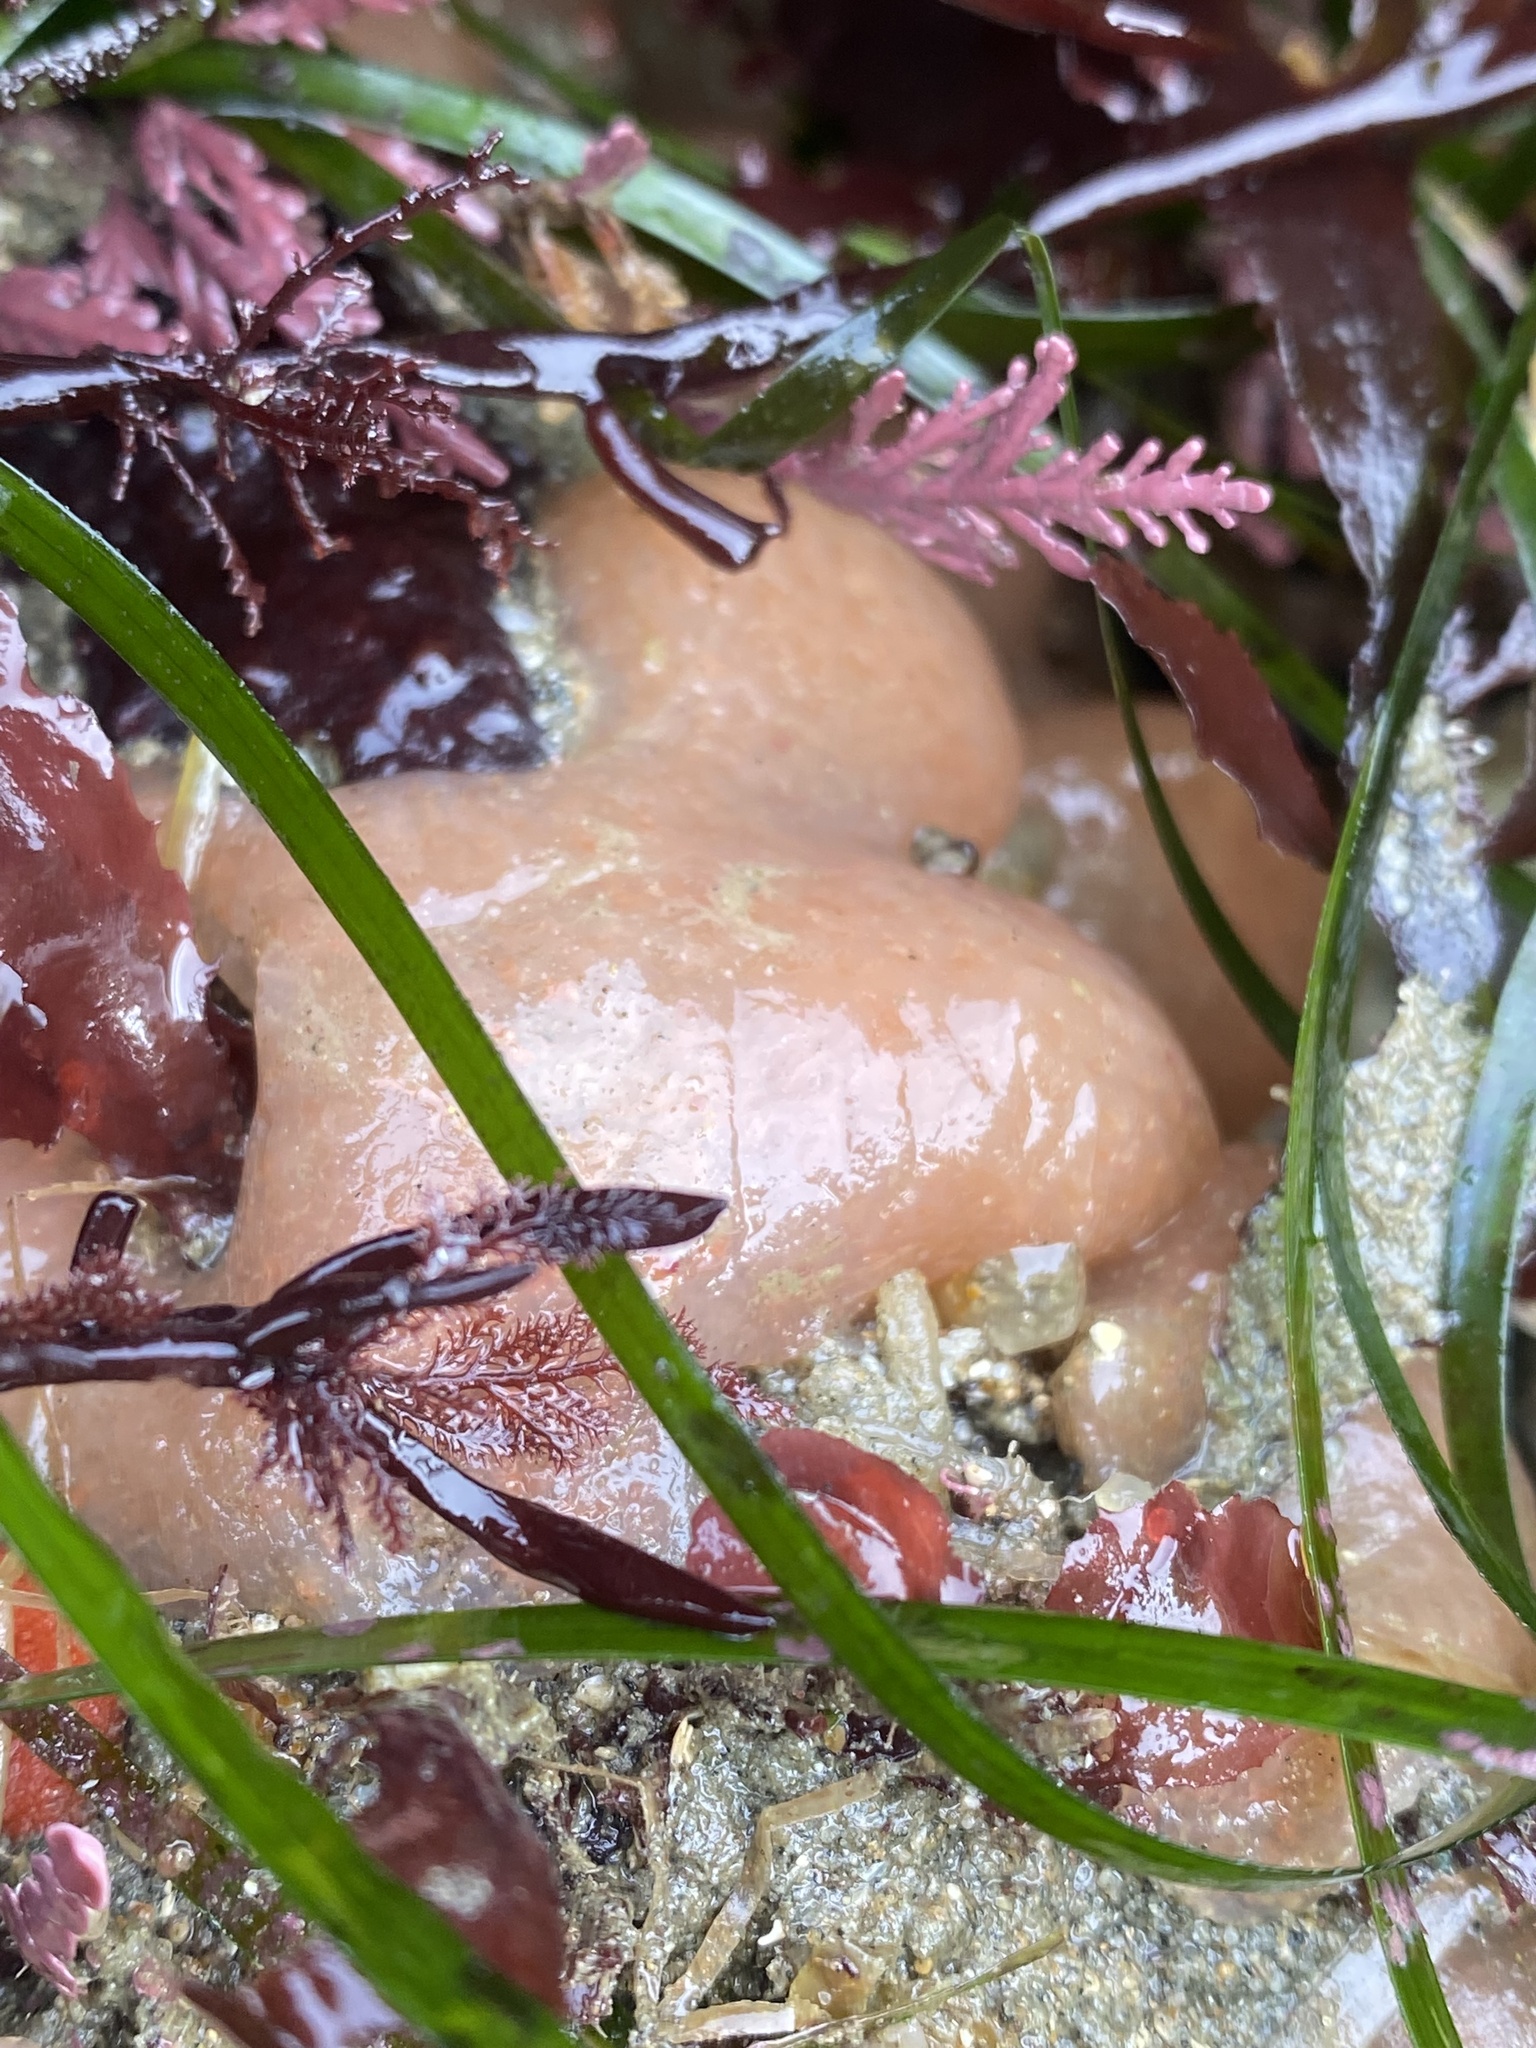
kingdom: Animalia
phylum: Chordata
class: Ascidiacea
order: Aplousobranchia
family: Polyclinidae
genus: Aplidium
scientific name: Aplidium californicum
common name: Sea pork
